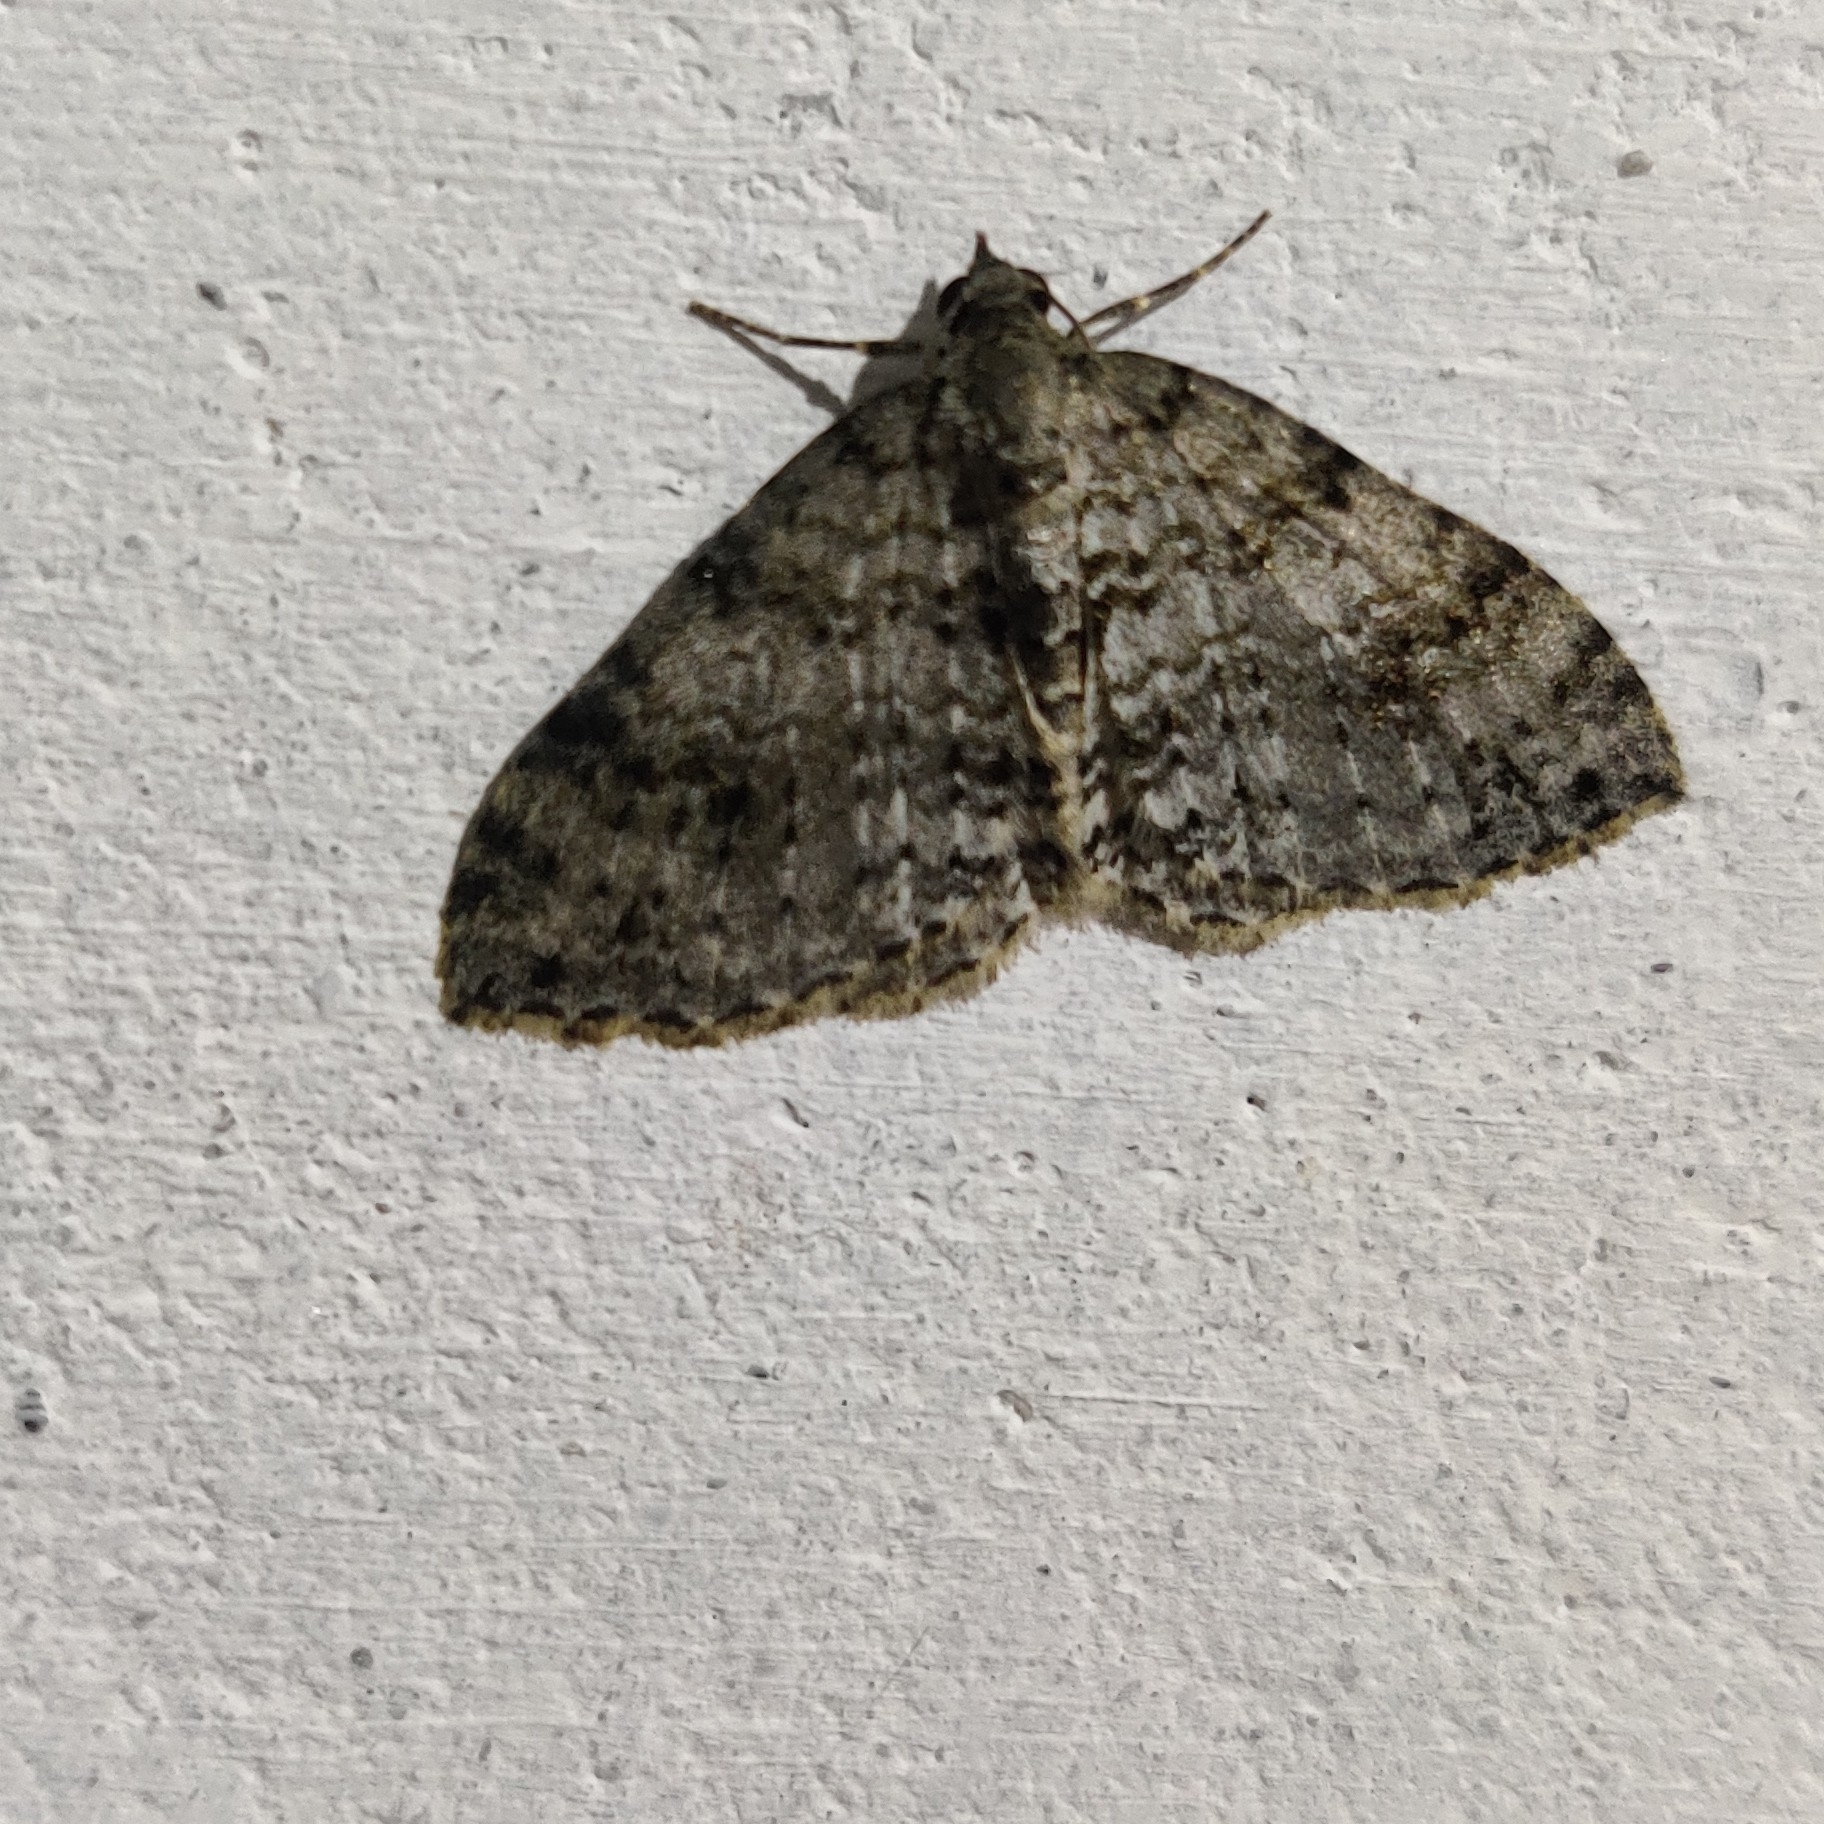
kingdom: Animalia
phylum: Arthropoda
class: Insecta
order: Lepidoptera
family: Geometridae
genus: Atopophysa
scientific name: Atopophysa indistincta
